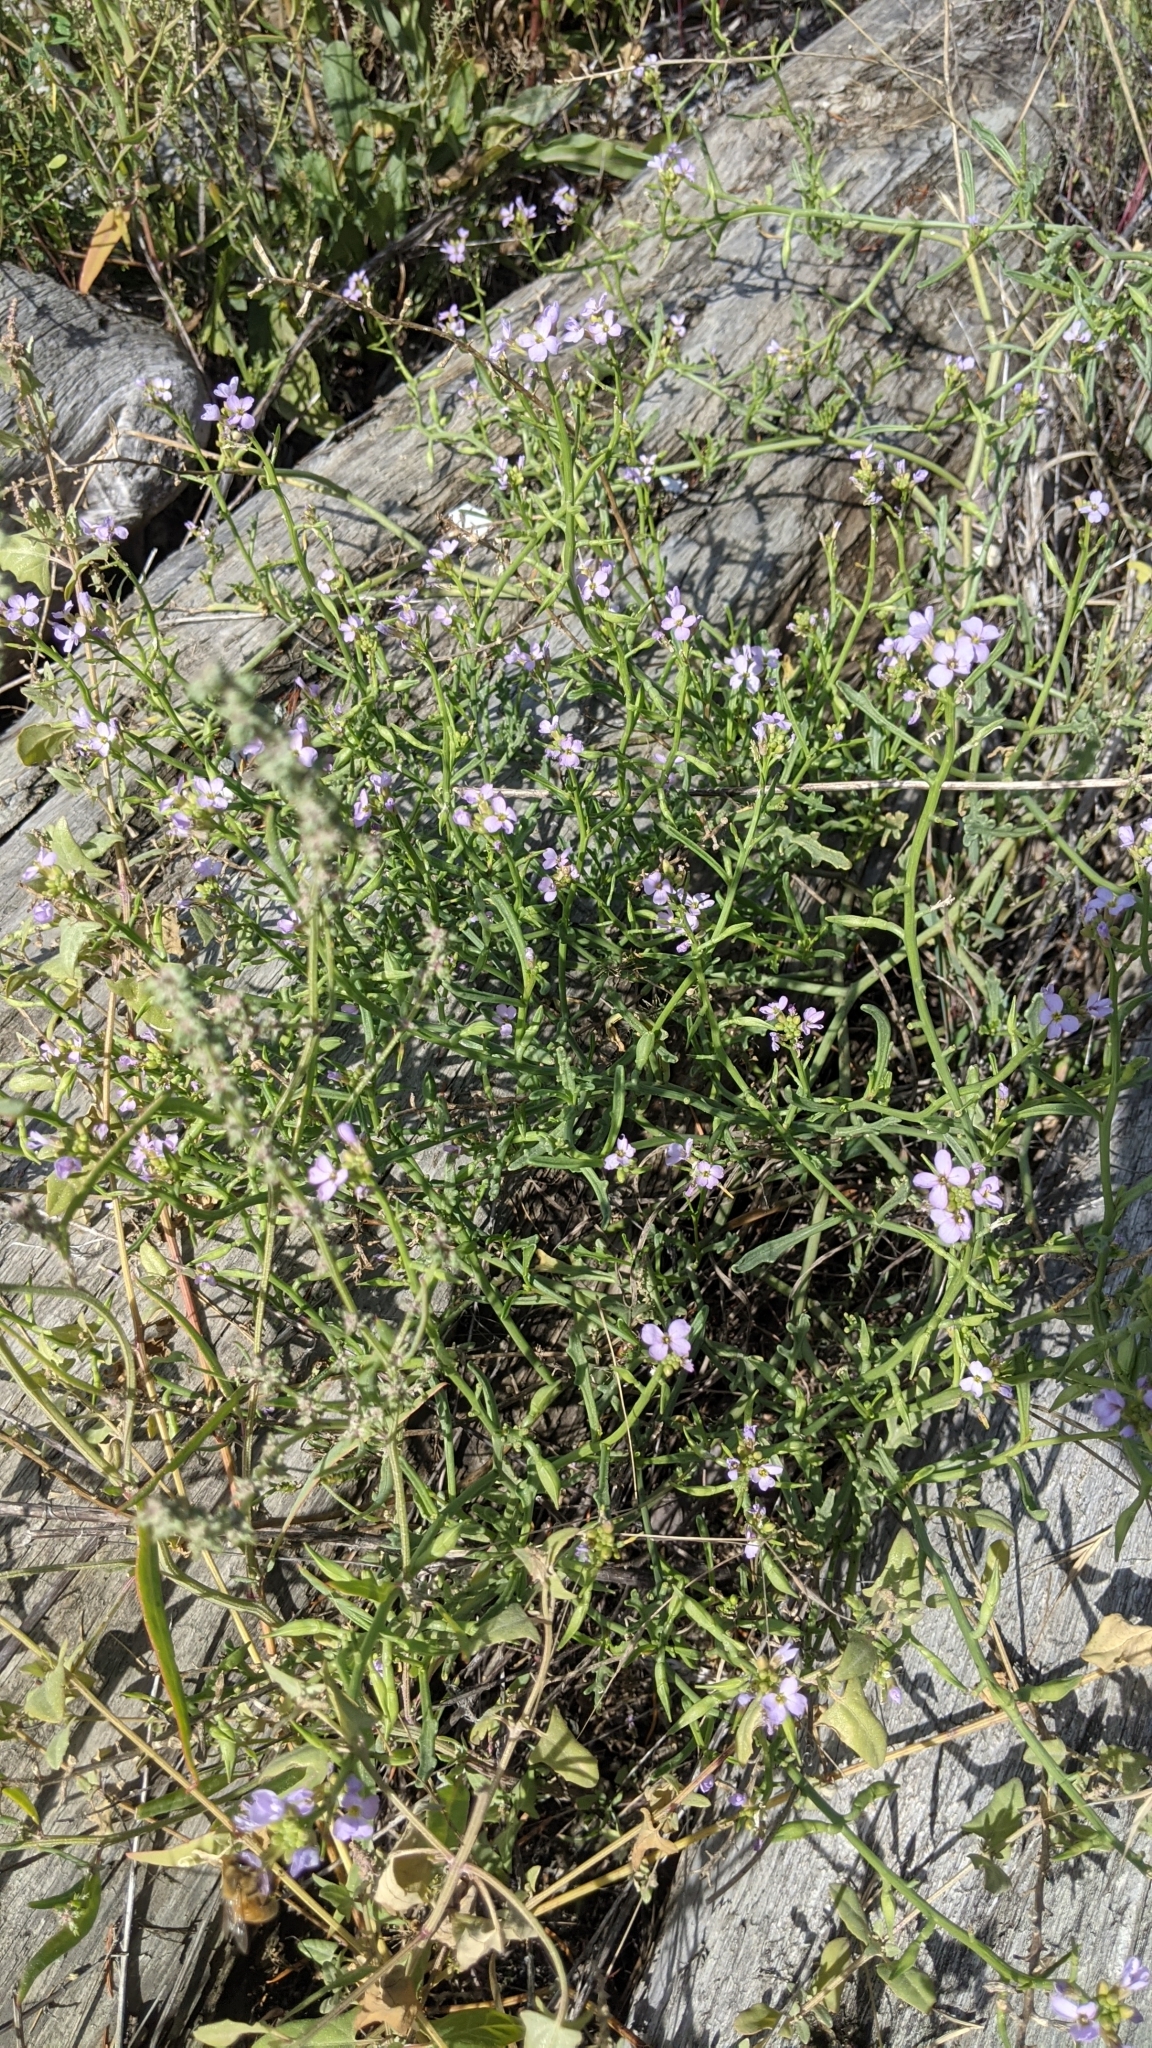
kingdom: Plantae
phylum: Tracheophyta
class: Magnoliopsida
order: Brassicales
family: Brassicaceae
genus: Cakile
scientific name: Cakile maritima
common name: Sea rocket
